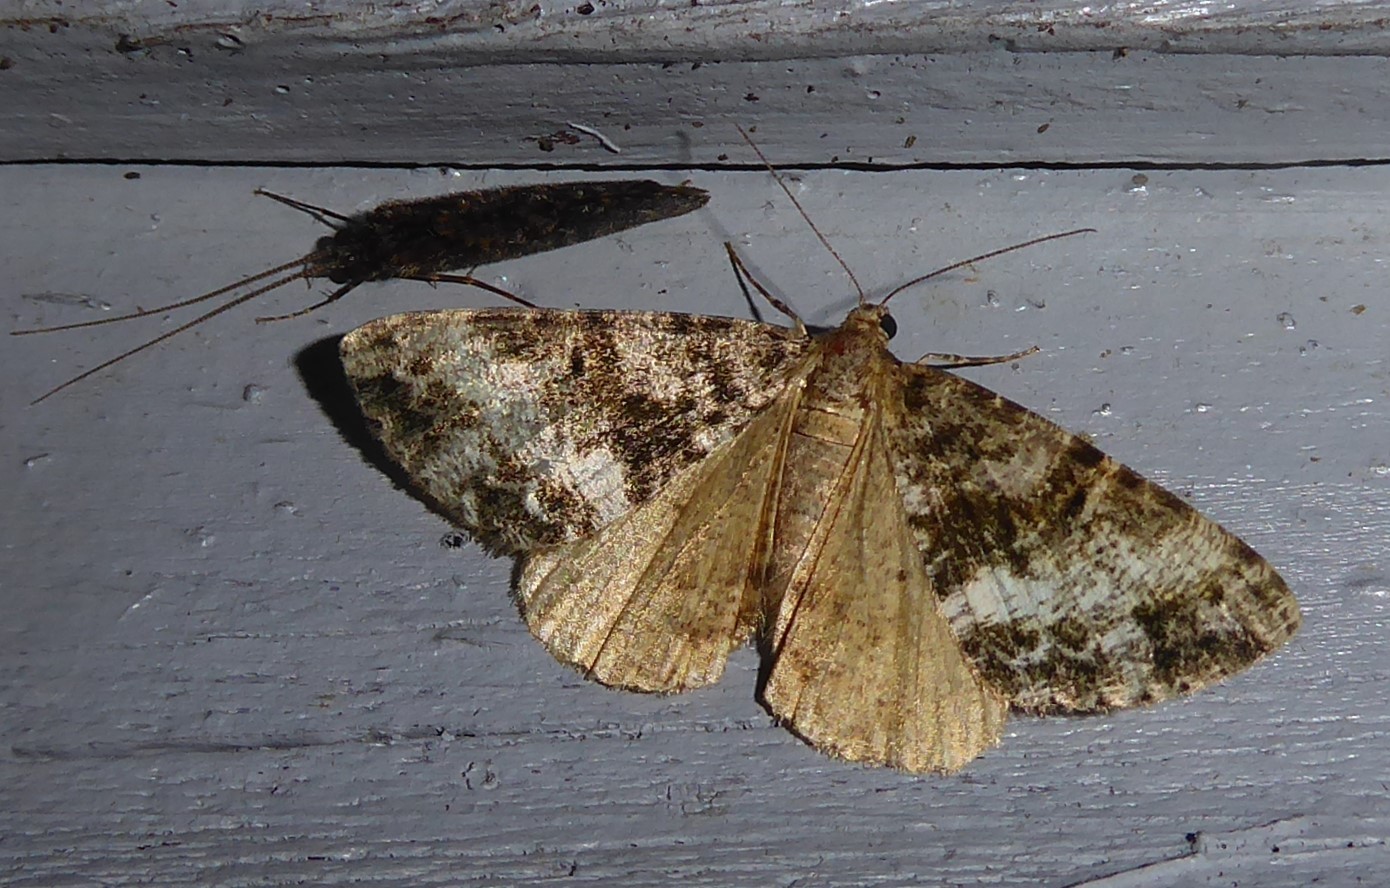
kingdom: Animalia
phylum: Arthropoda
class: Insecta
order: Lepidoptera
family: Geometridae
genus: Pseudocoremia
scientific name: Pseudocoremia lactiflua
